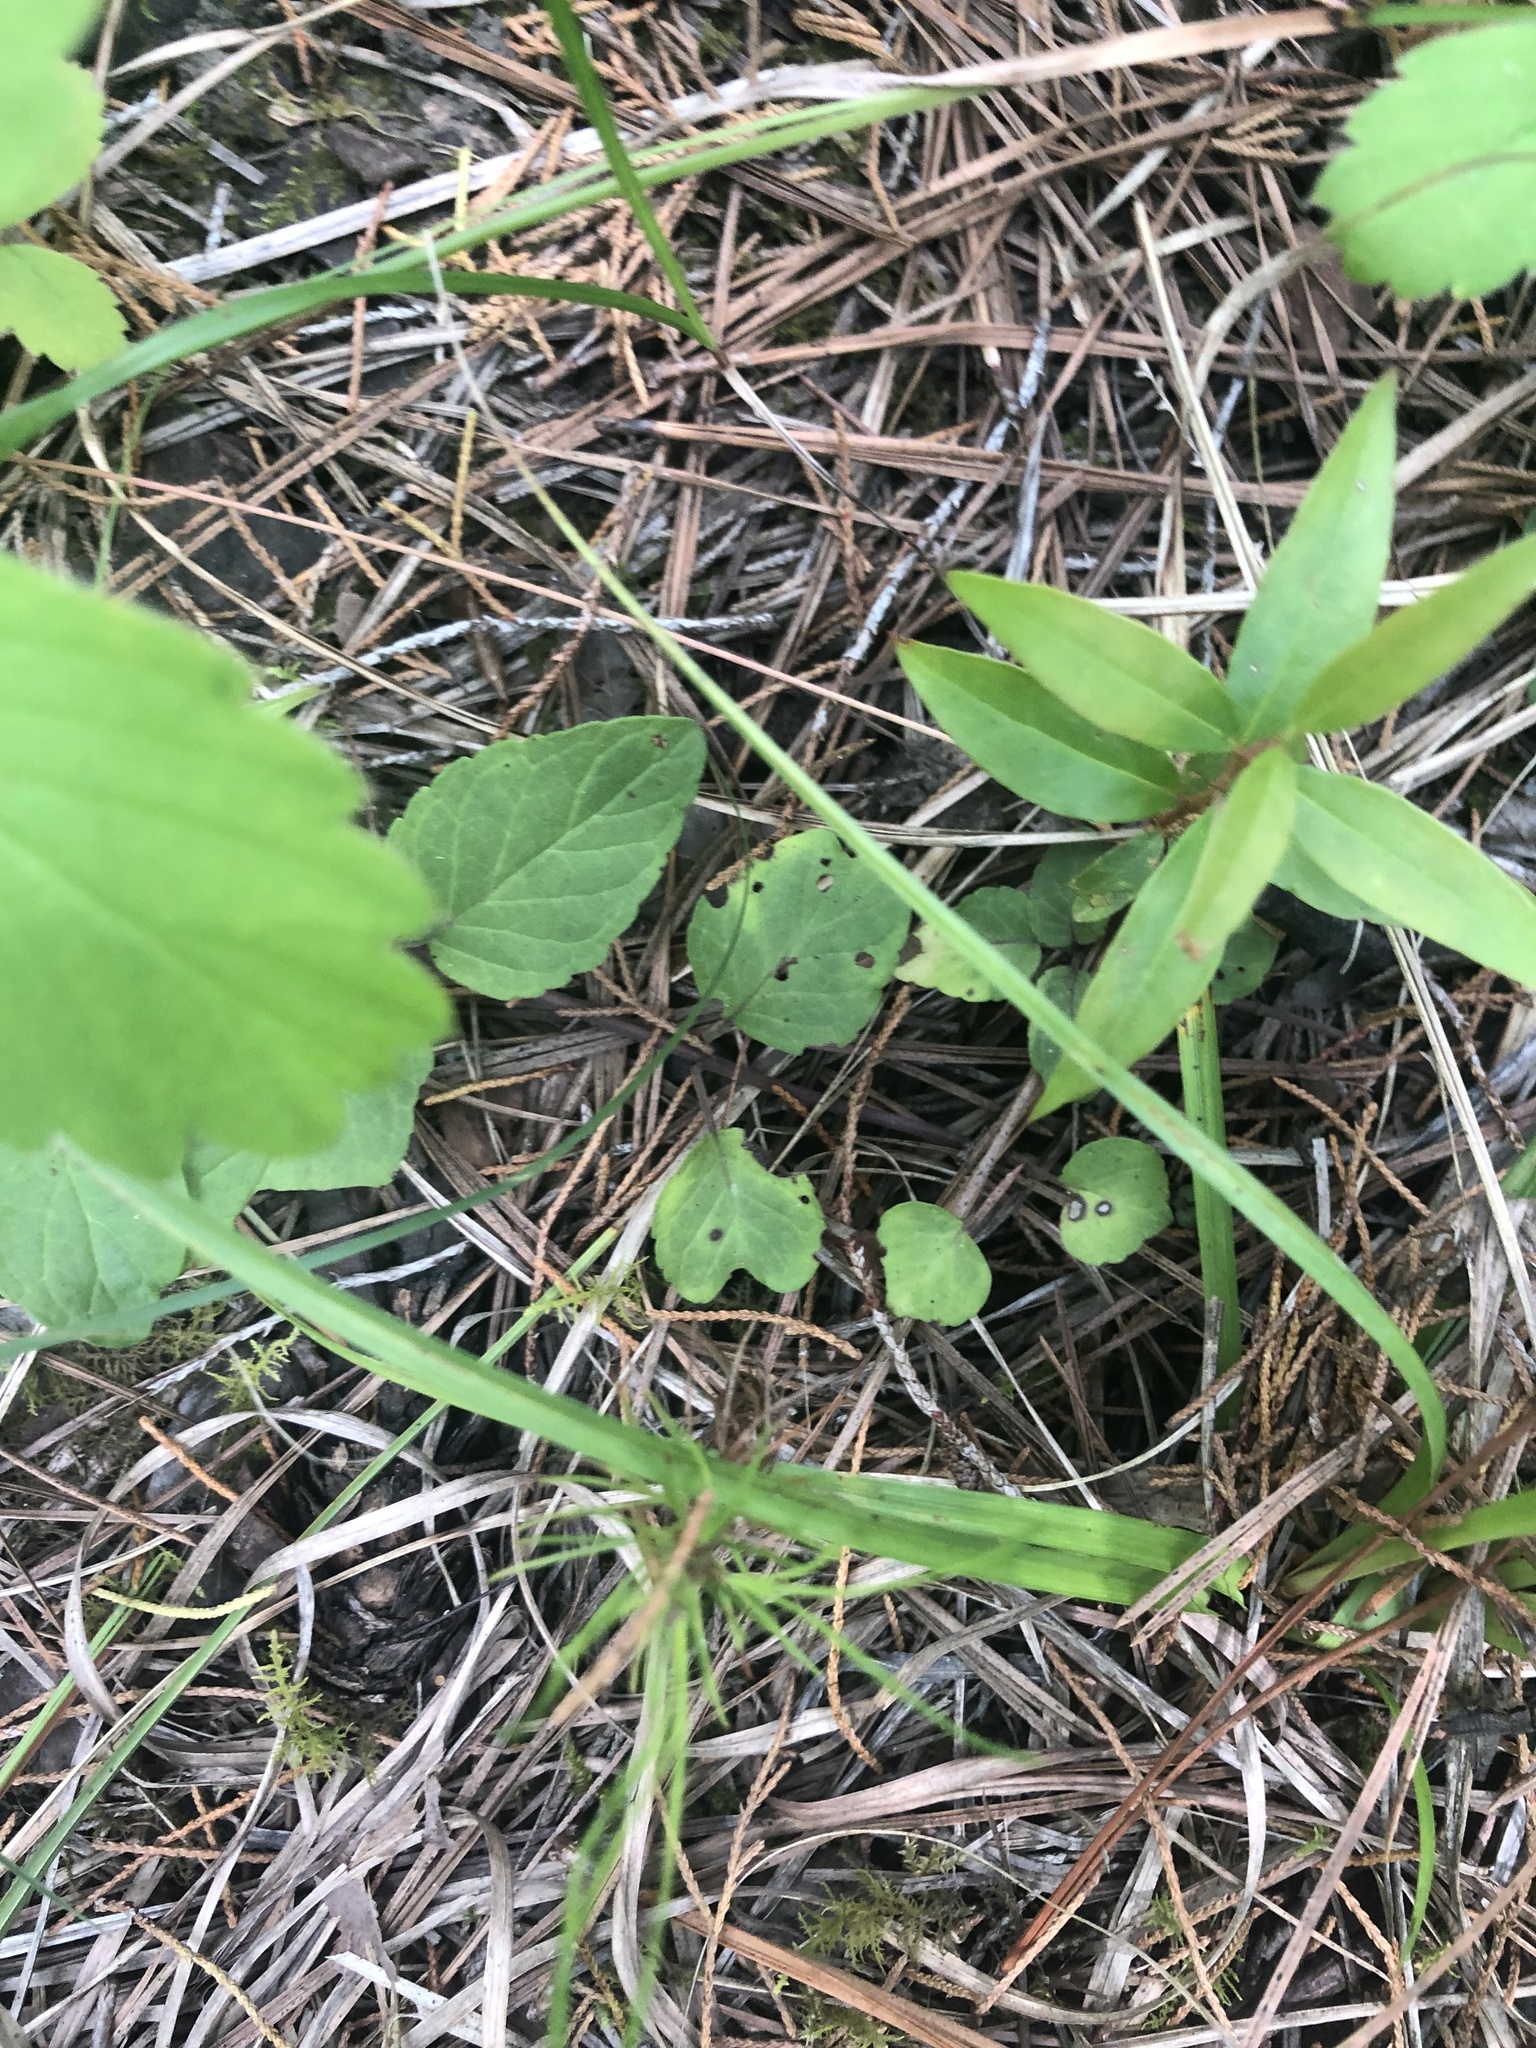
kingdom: Plantae
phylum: Tracheophyta
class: Magnoliopsida
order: Lamiales
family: Lamiaceae
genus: Blephilia
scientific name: Blephilia ciliata
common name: Downy blephilia
